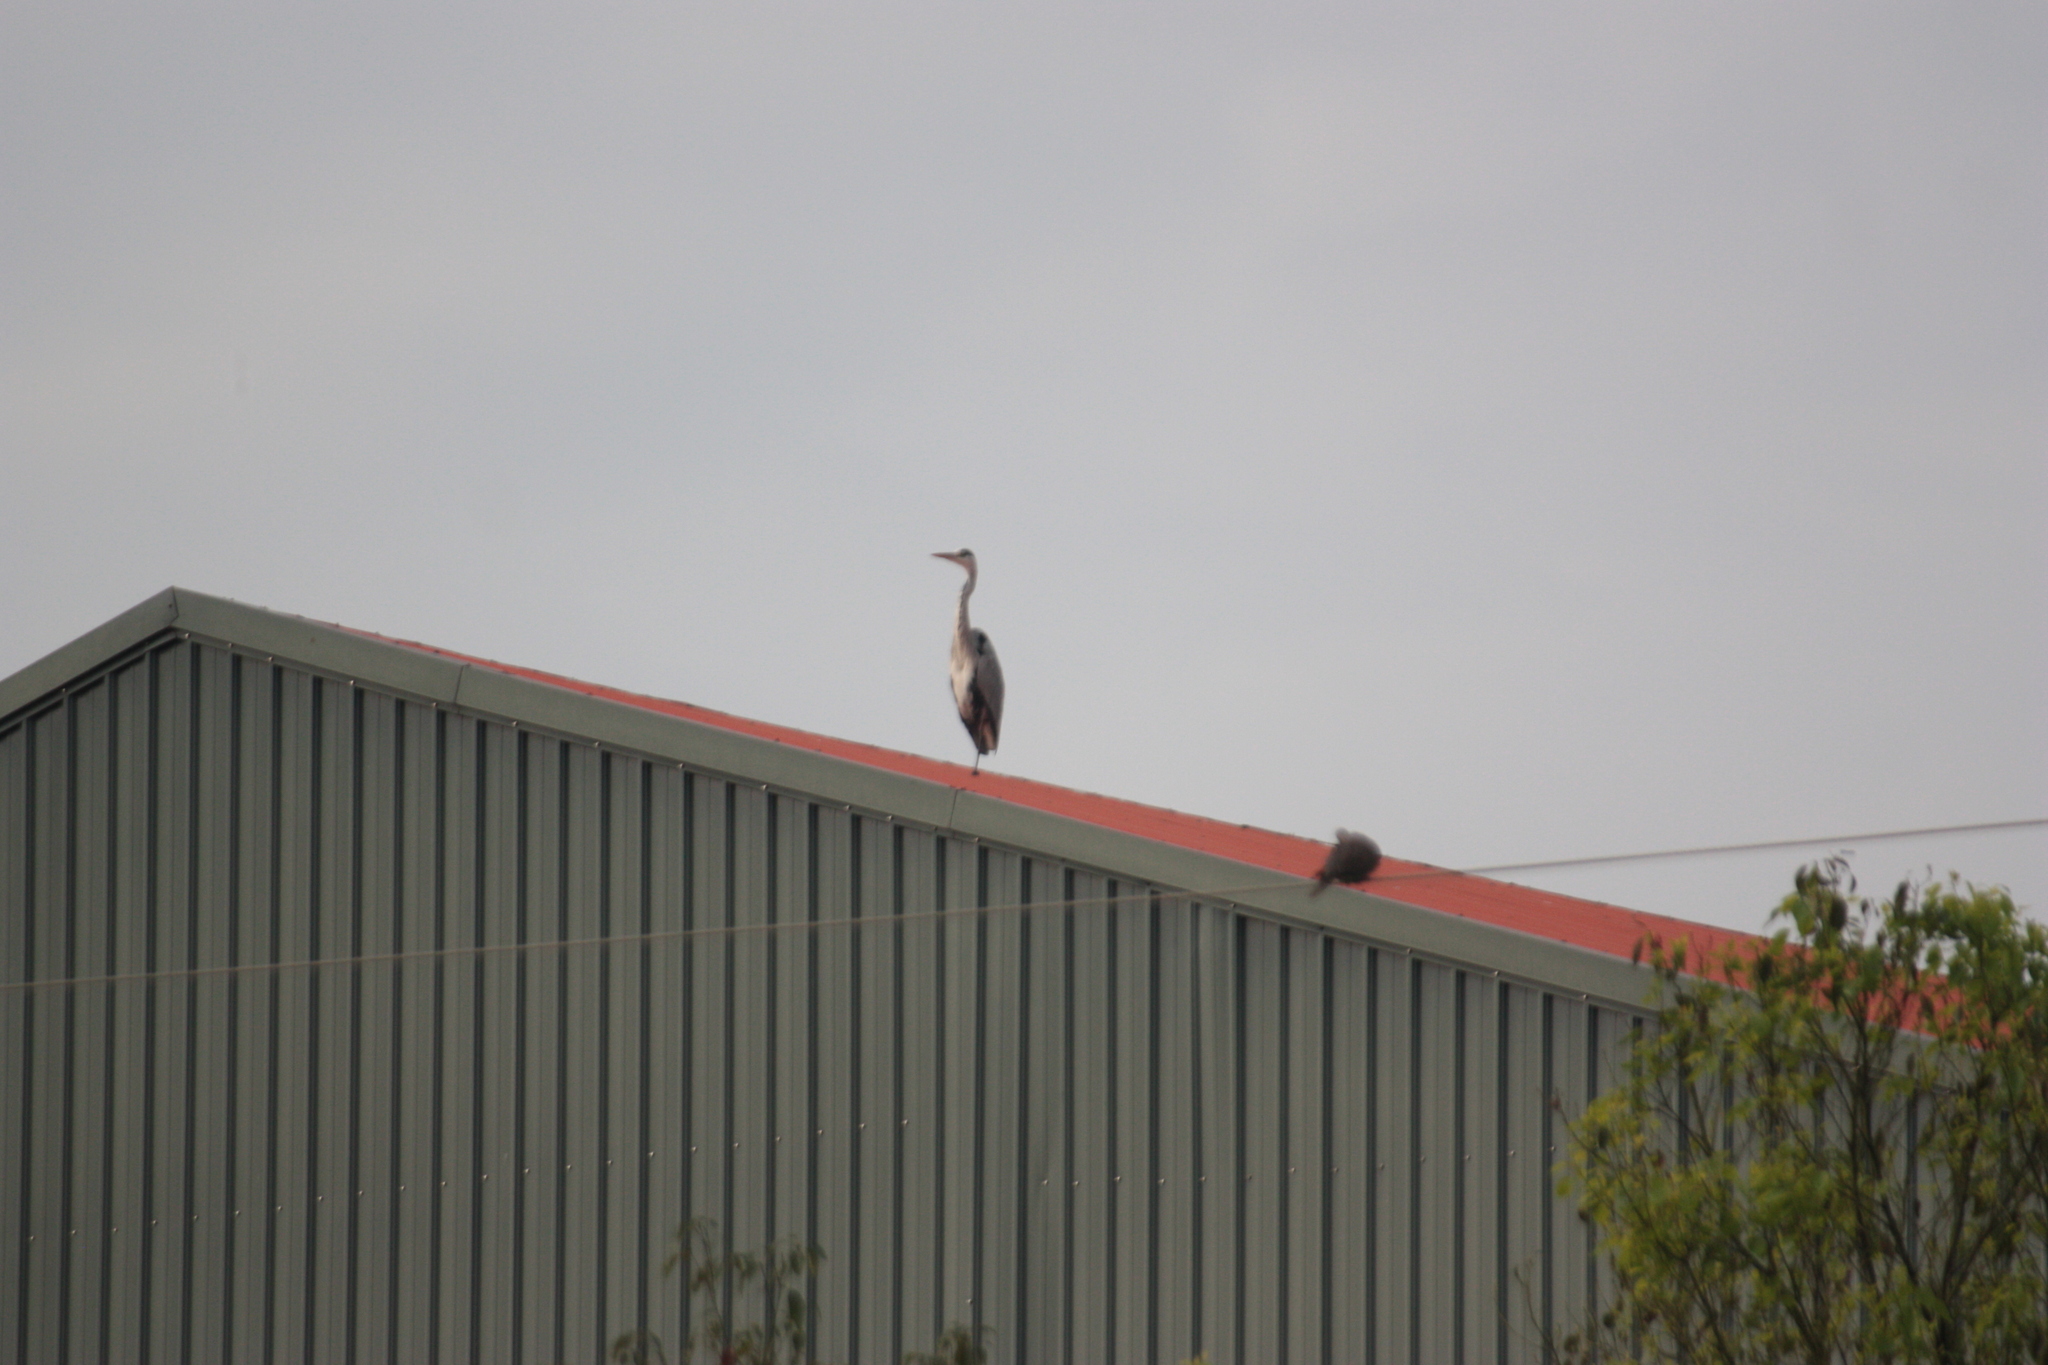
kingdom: Animalia
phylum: Chordata
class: Aves
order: Pelecaniformes
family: Ardeidae
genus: Ardea
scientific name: Ardea cinerea
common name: Grey heron
